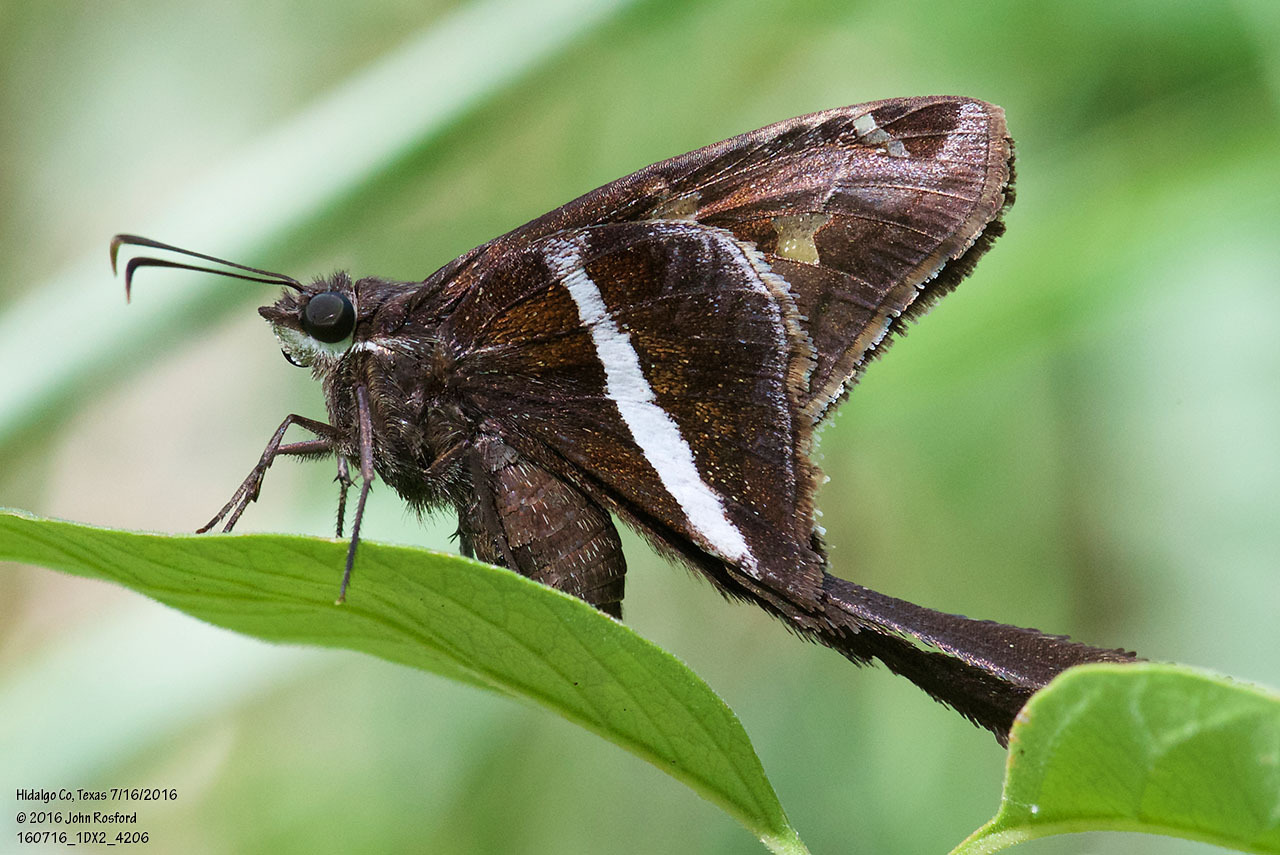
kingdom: Animalia
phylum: Arthropoda
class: Insecta
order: Lepidoptera
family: Hesperiidae
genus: Chioides
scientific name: Chioides catillus
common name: Silverbanded skipper
